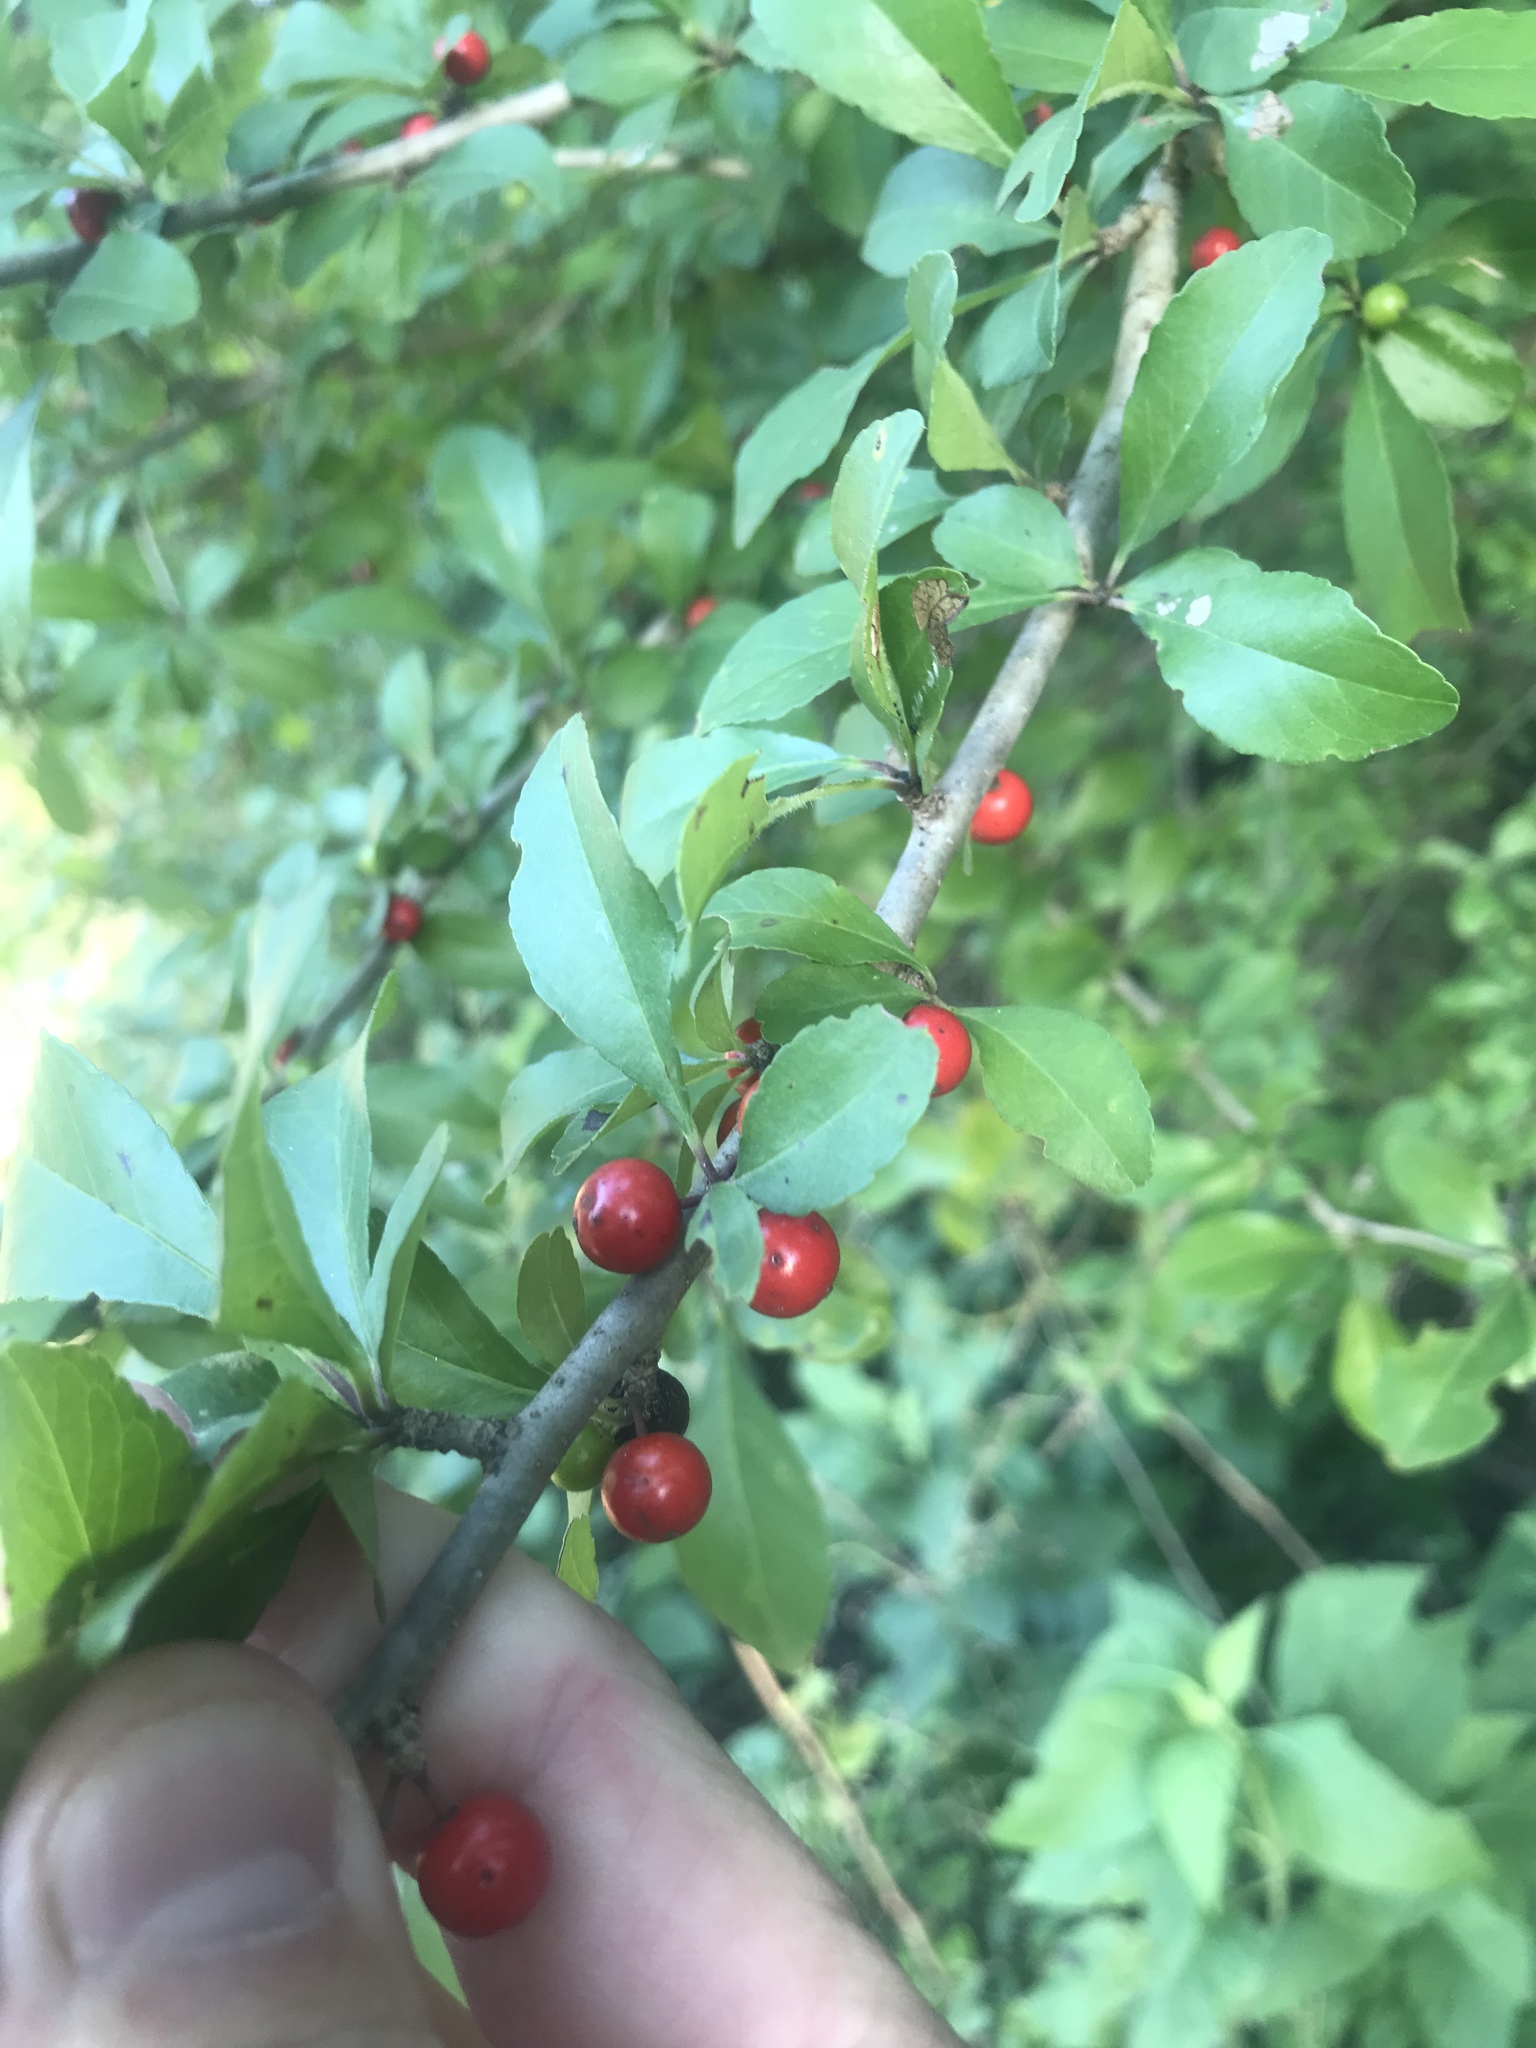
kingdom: Plantae
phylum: Tracheophyta
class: Magnoliopsida
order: Aquifoliales
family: Aquifoliaceae
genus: Ilex
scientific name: Ilex decidua
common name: Possum-haw
